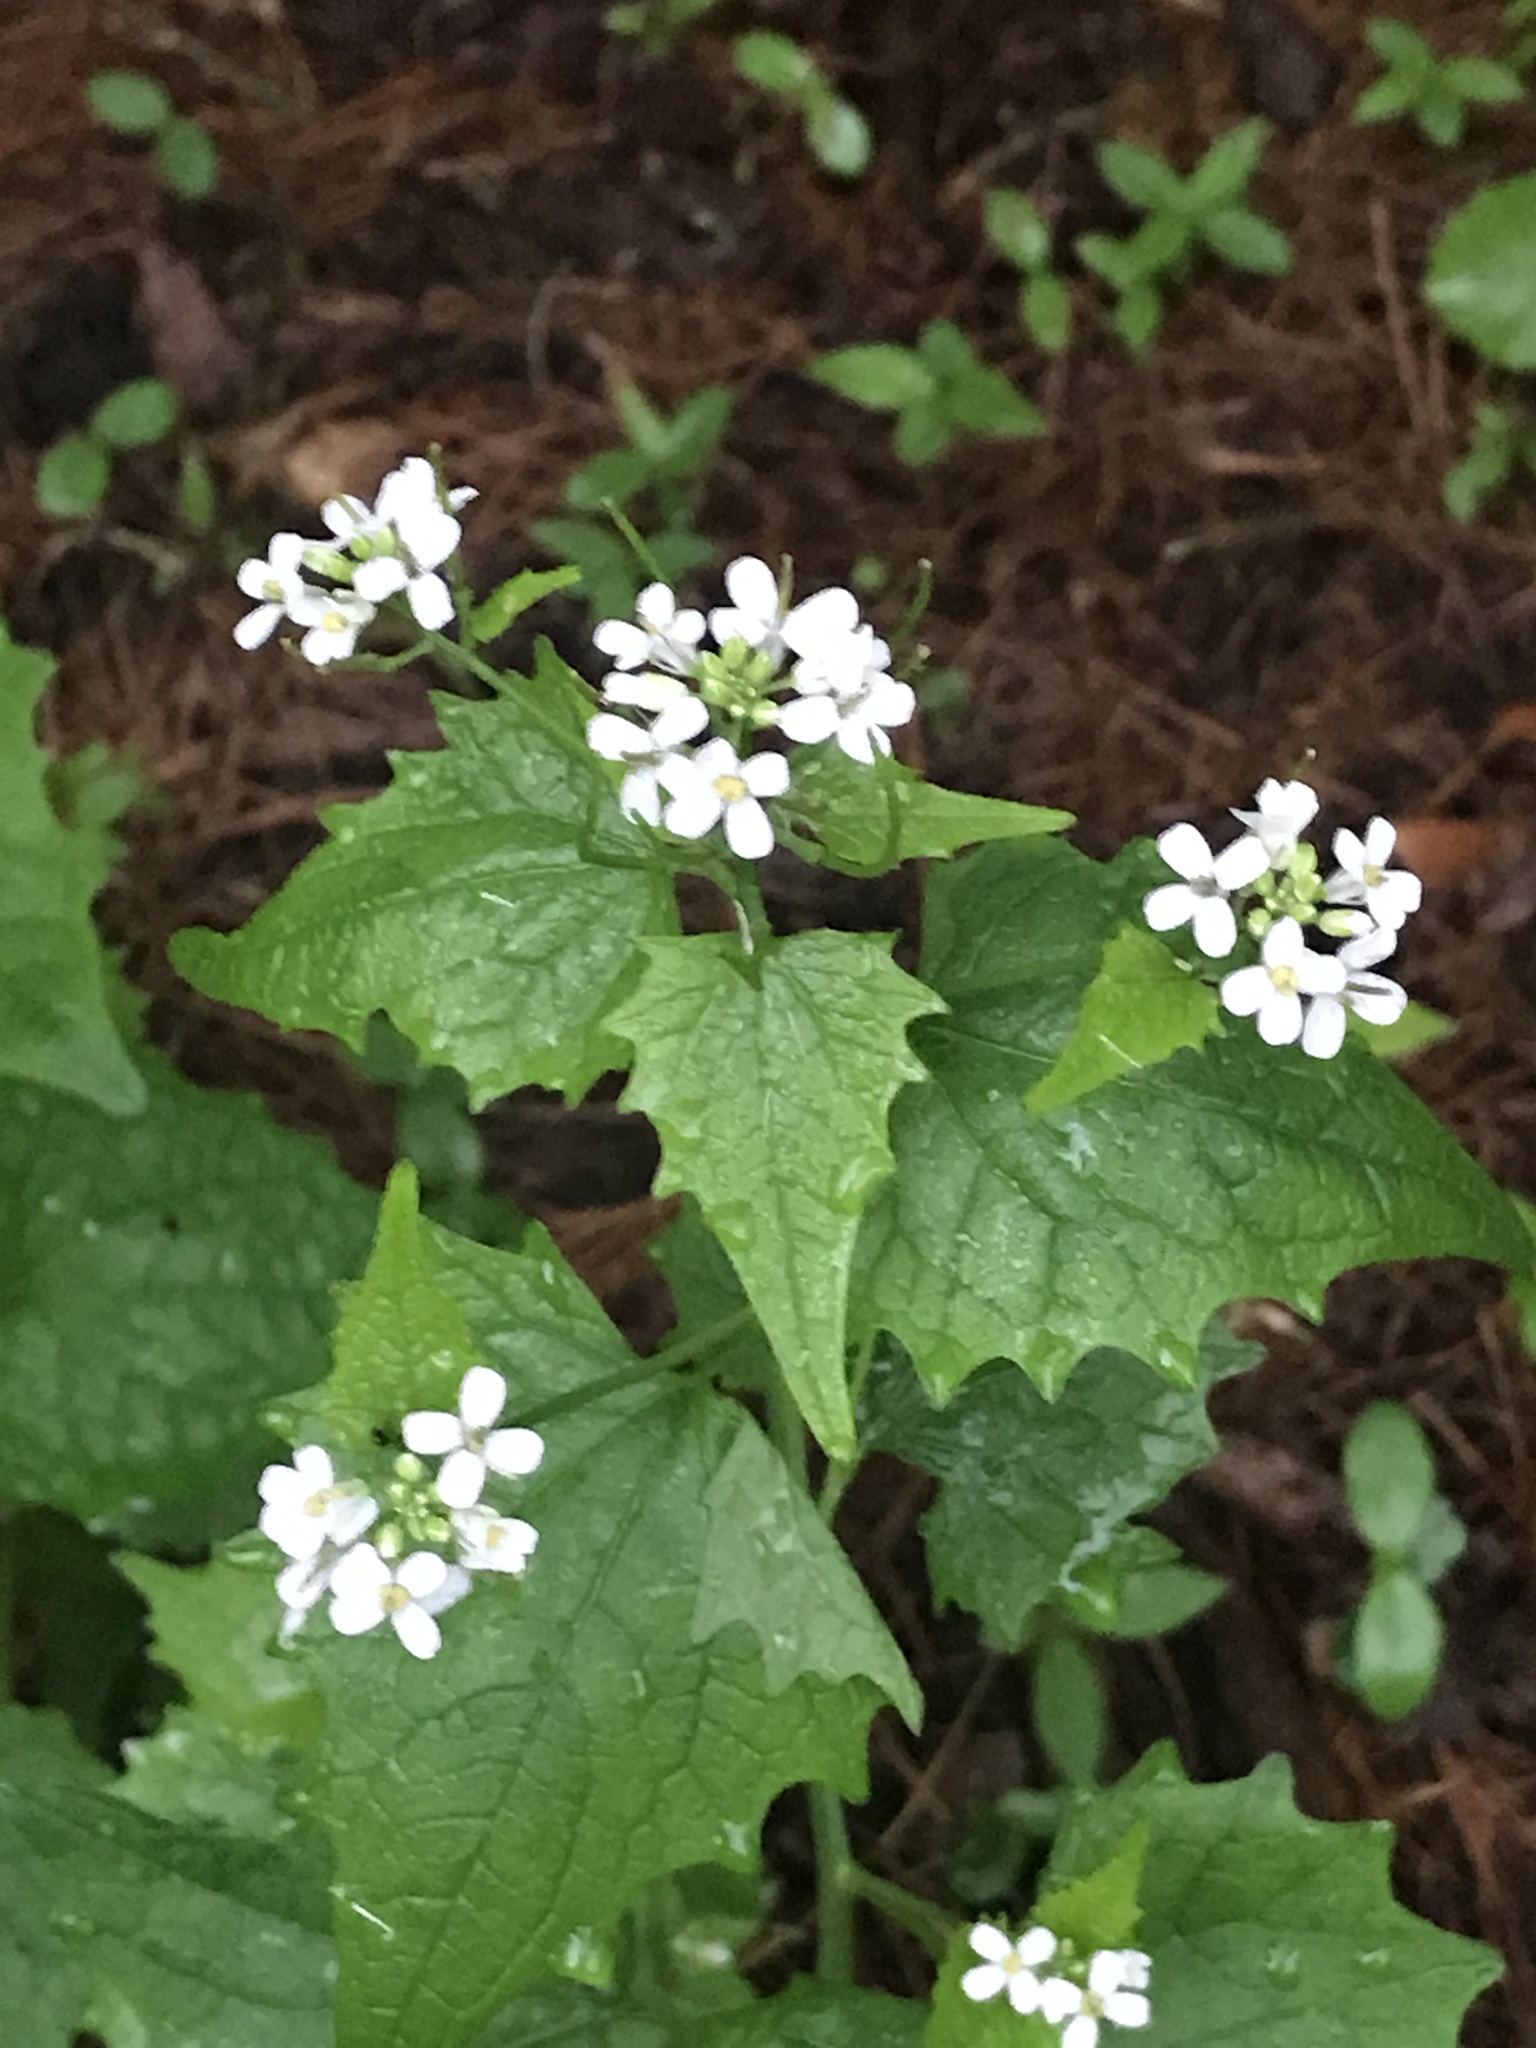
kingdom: Plantae
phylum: Tracheophyta
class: Magnoliopsida
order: Brassicales
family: Brassicaceae
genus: Alliaria
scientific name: Alliaria petiolata
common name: Garlic mustard
